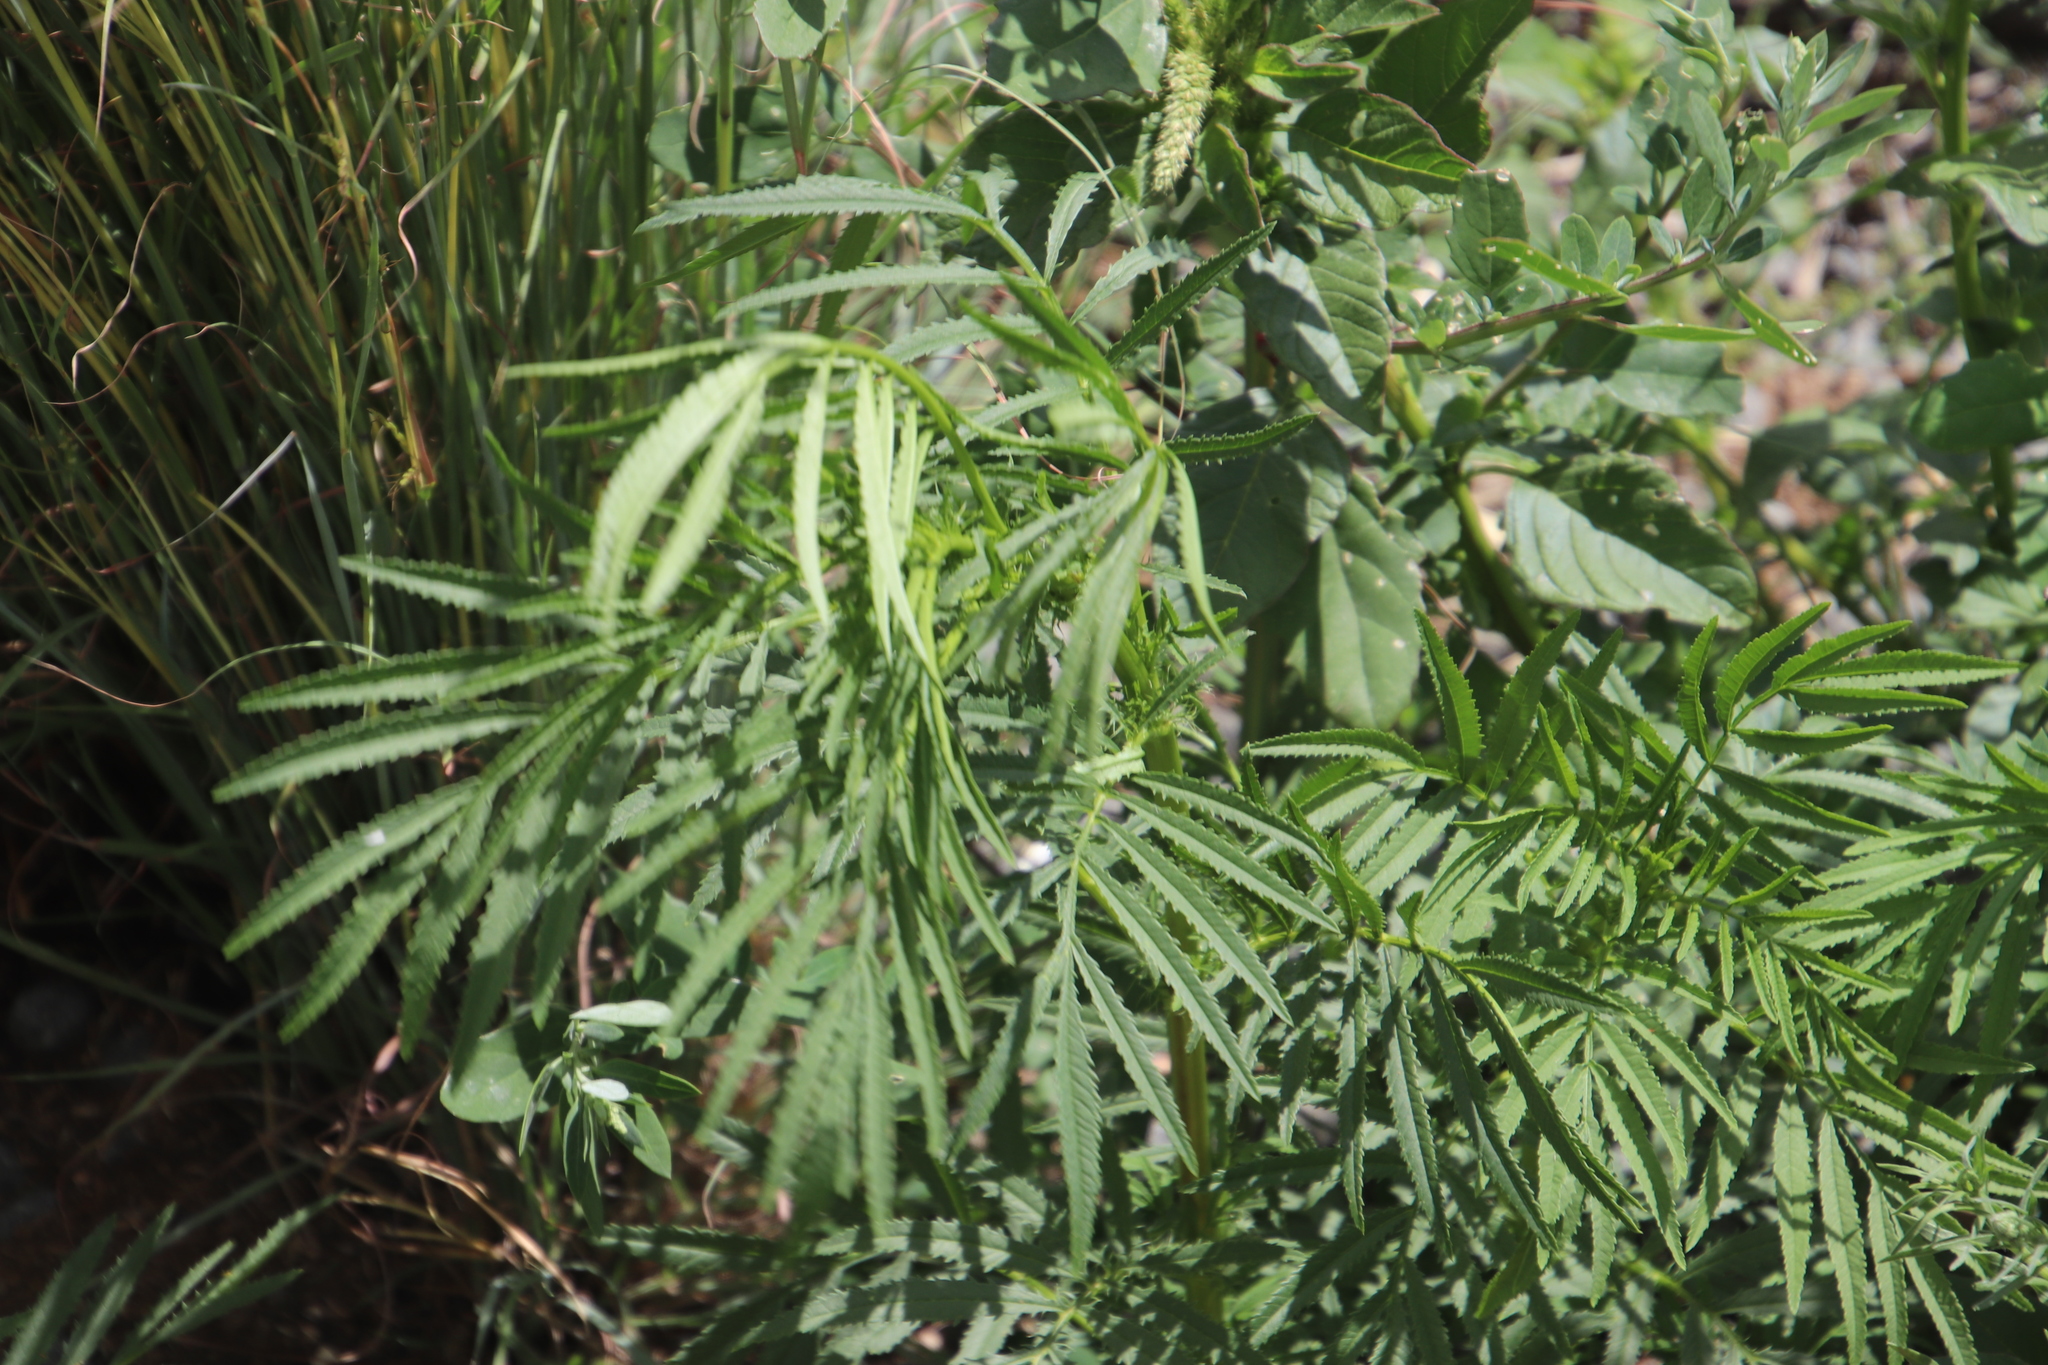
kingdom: Plantae
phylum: Tracheophyta
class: Magnoliopsida
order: Asterales
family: Asteraceae
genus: Tagetes
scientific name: Tagetes minuta
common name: Muster john henry
